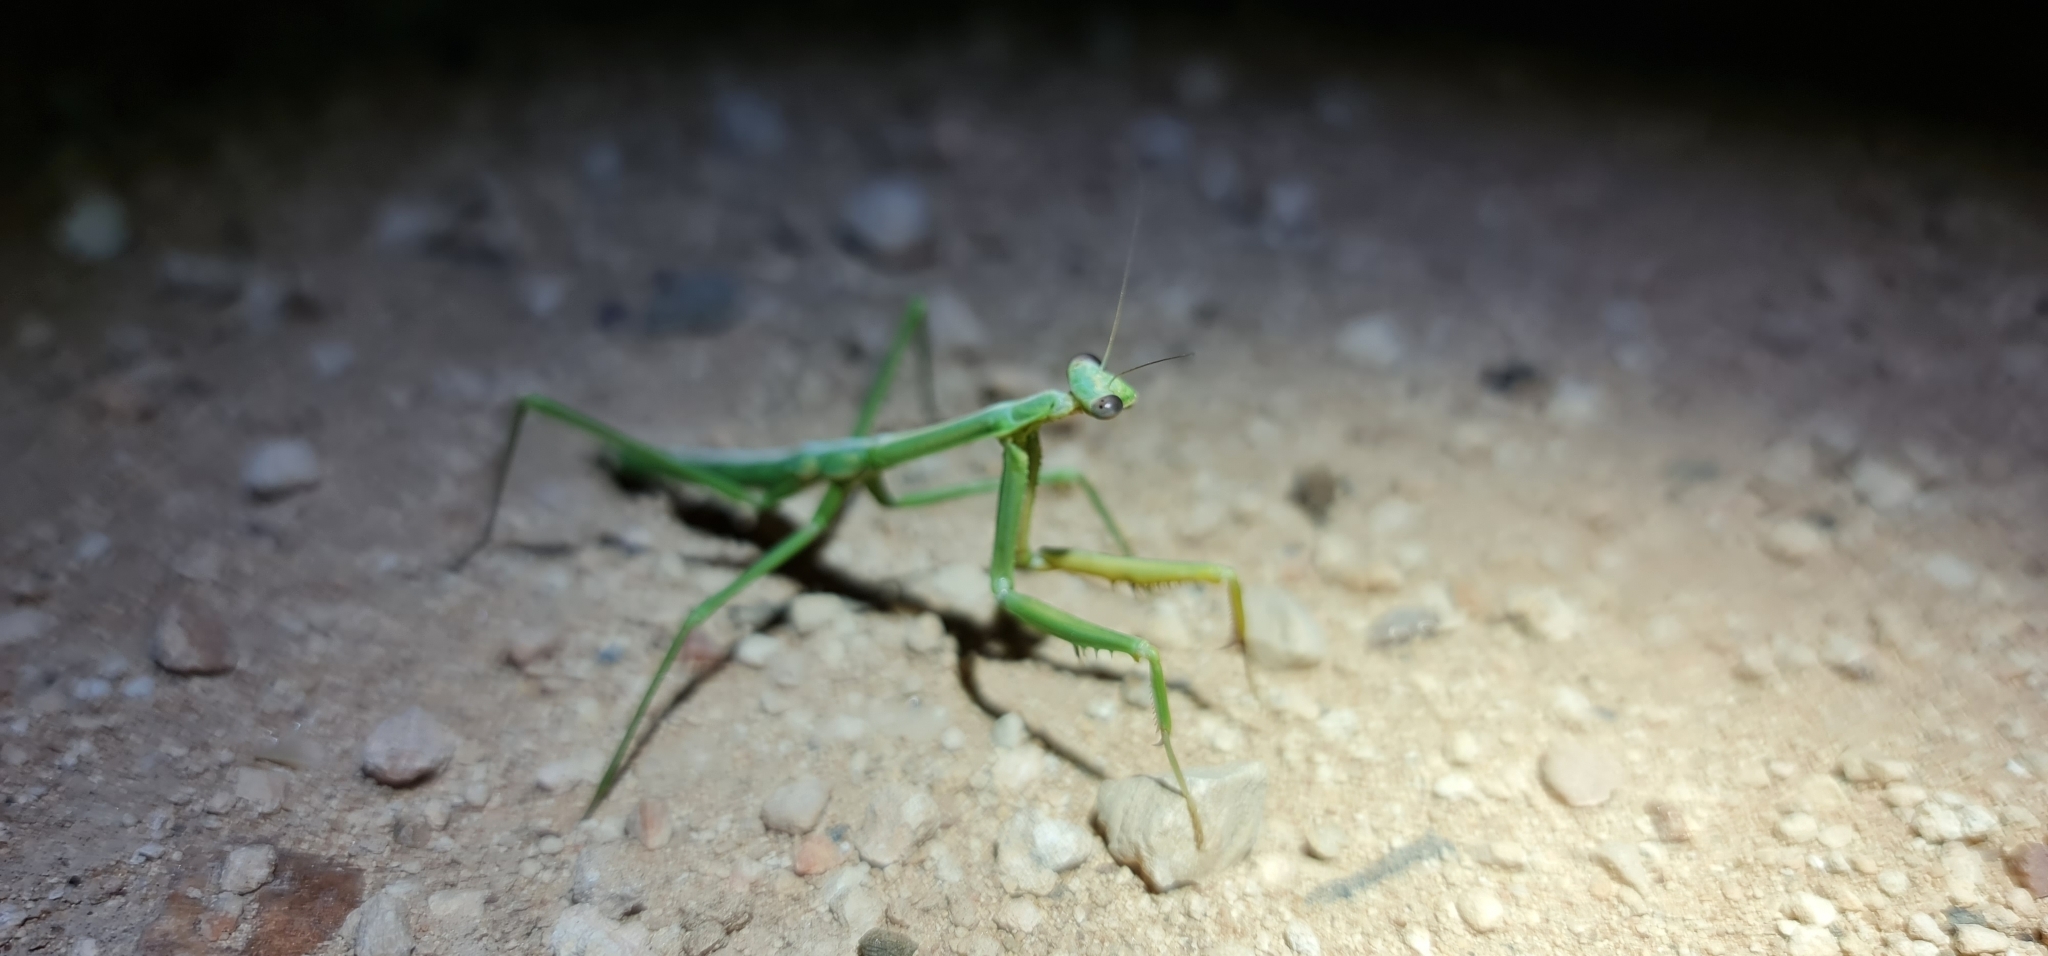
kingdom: Animalia
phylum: Arthropoda
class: Insecta
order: Mantodea
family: Mantidae
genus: Archimantis
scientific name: Archimantis sobrina
